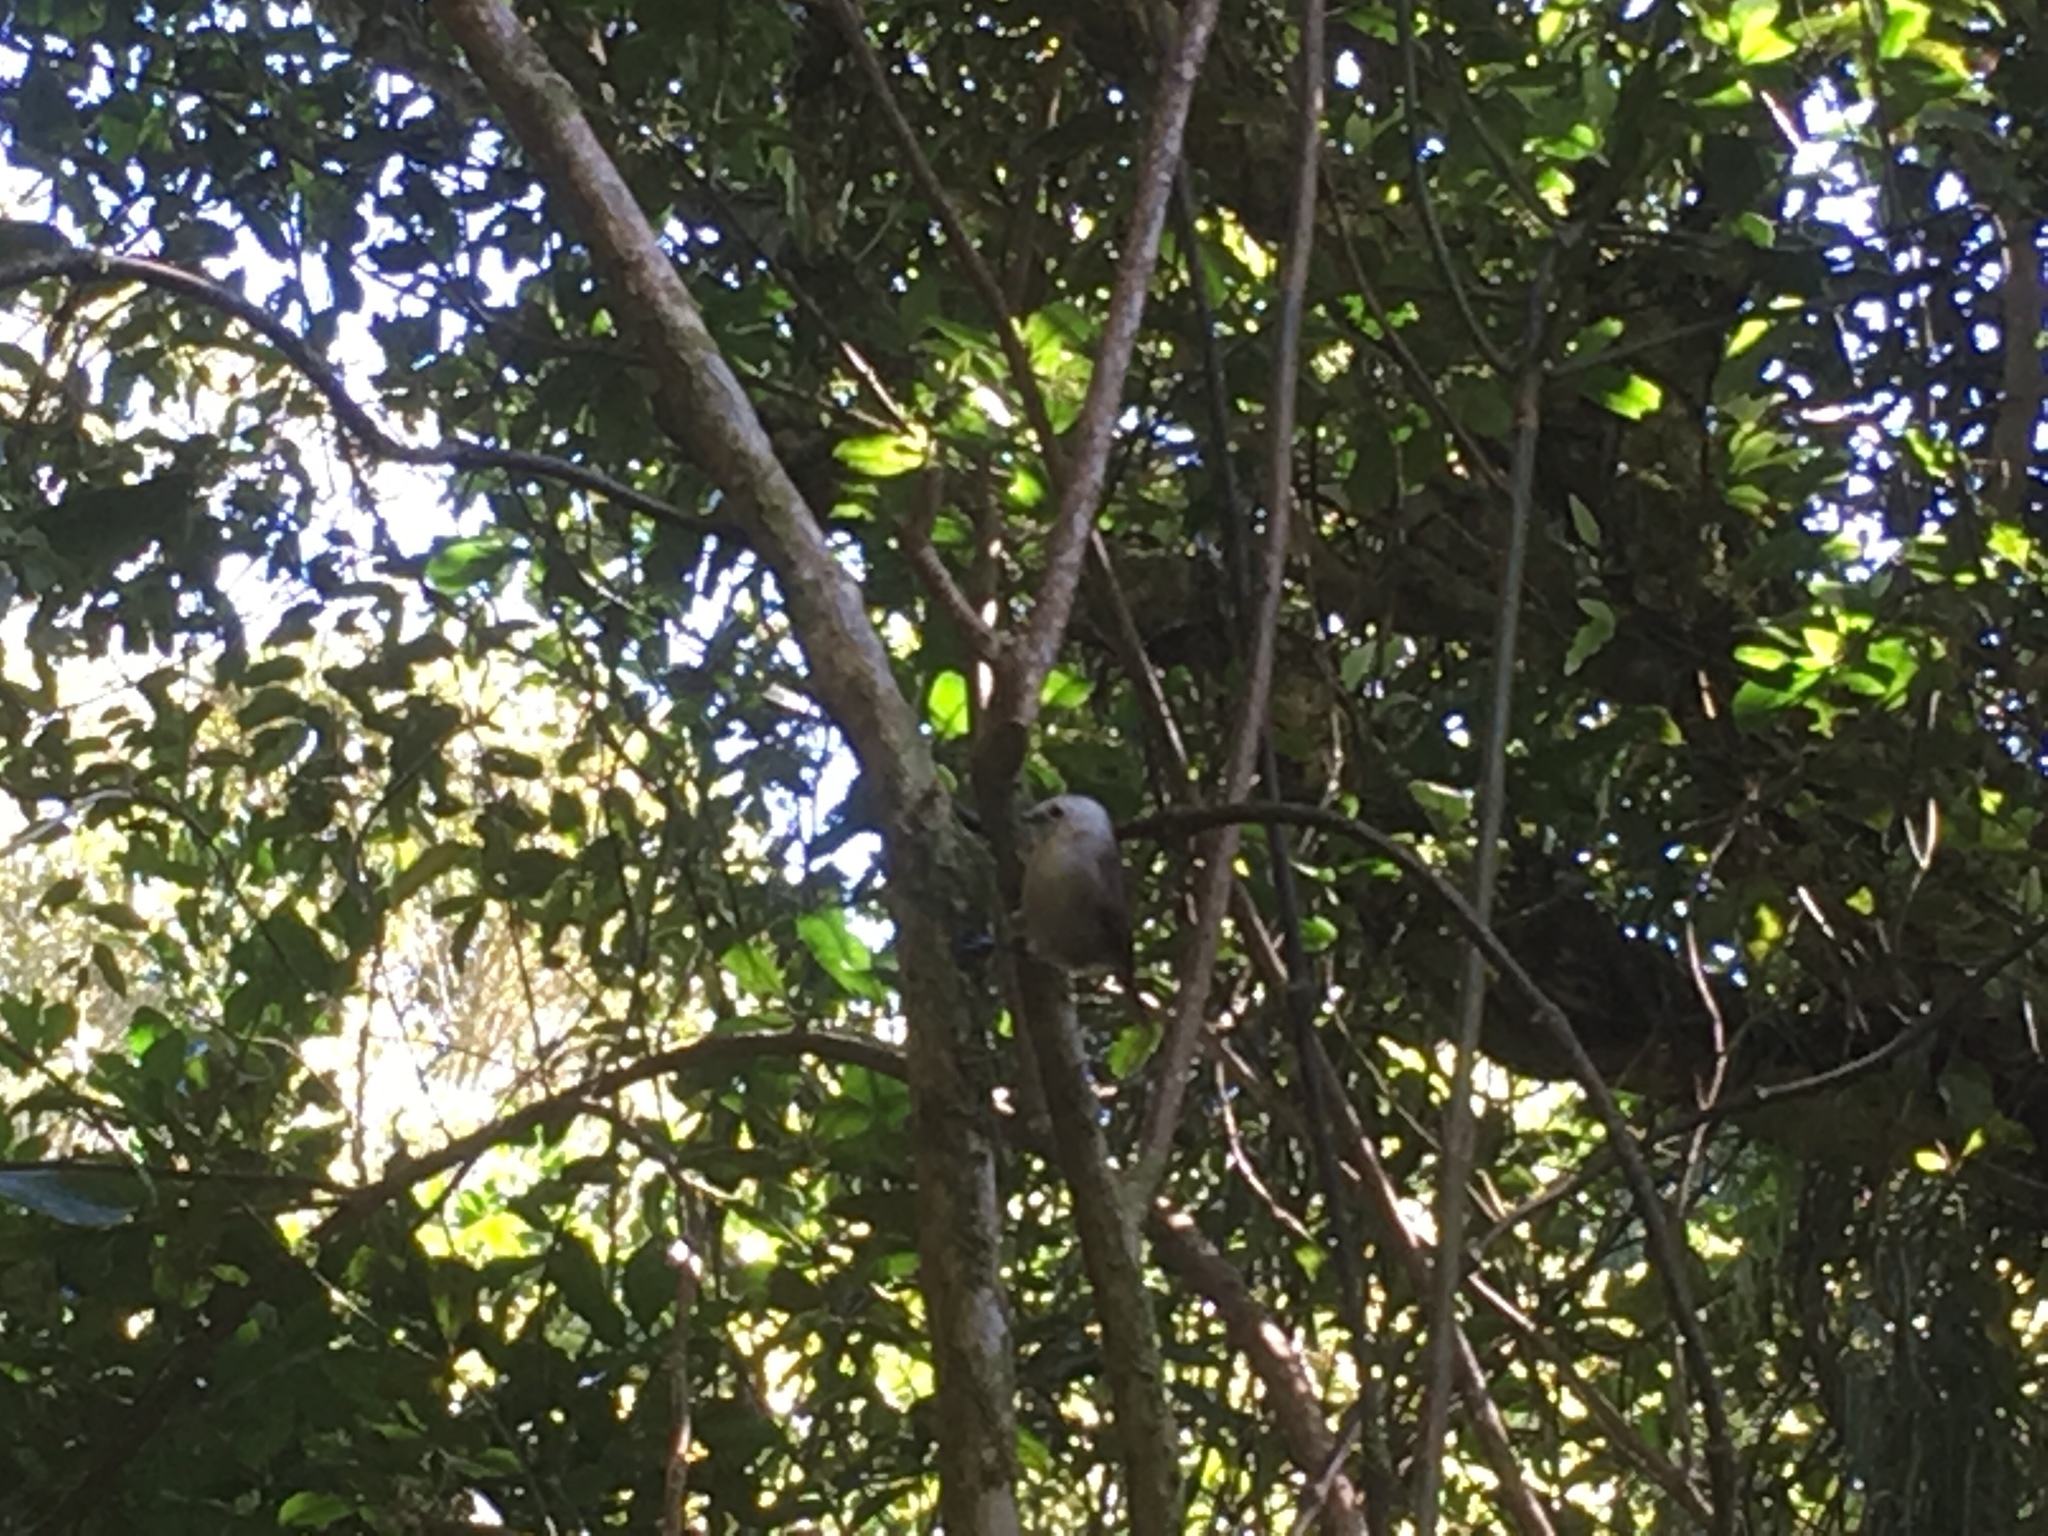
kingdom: Animalia
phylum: Chordata
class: Aves
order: Passeriformes
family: Acanthizidae
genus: Mohoua
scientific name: Mohoua albicilla
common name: Whitehead
